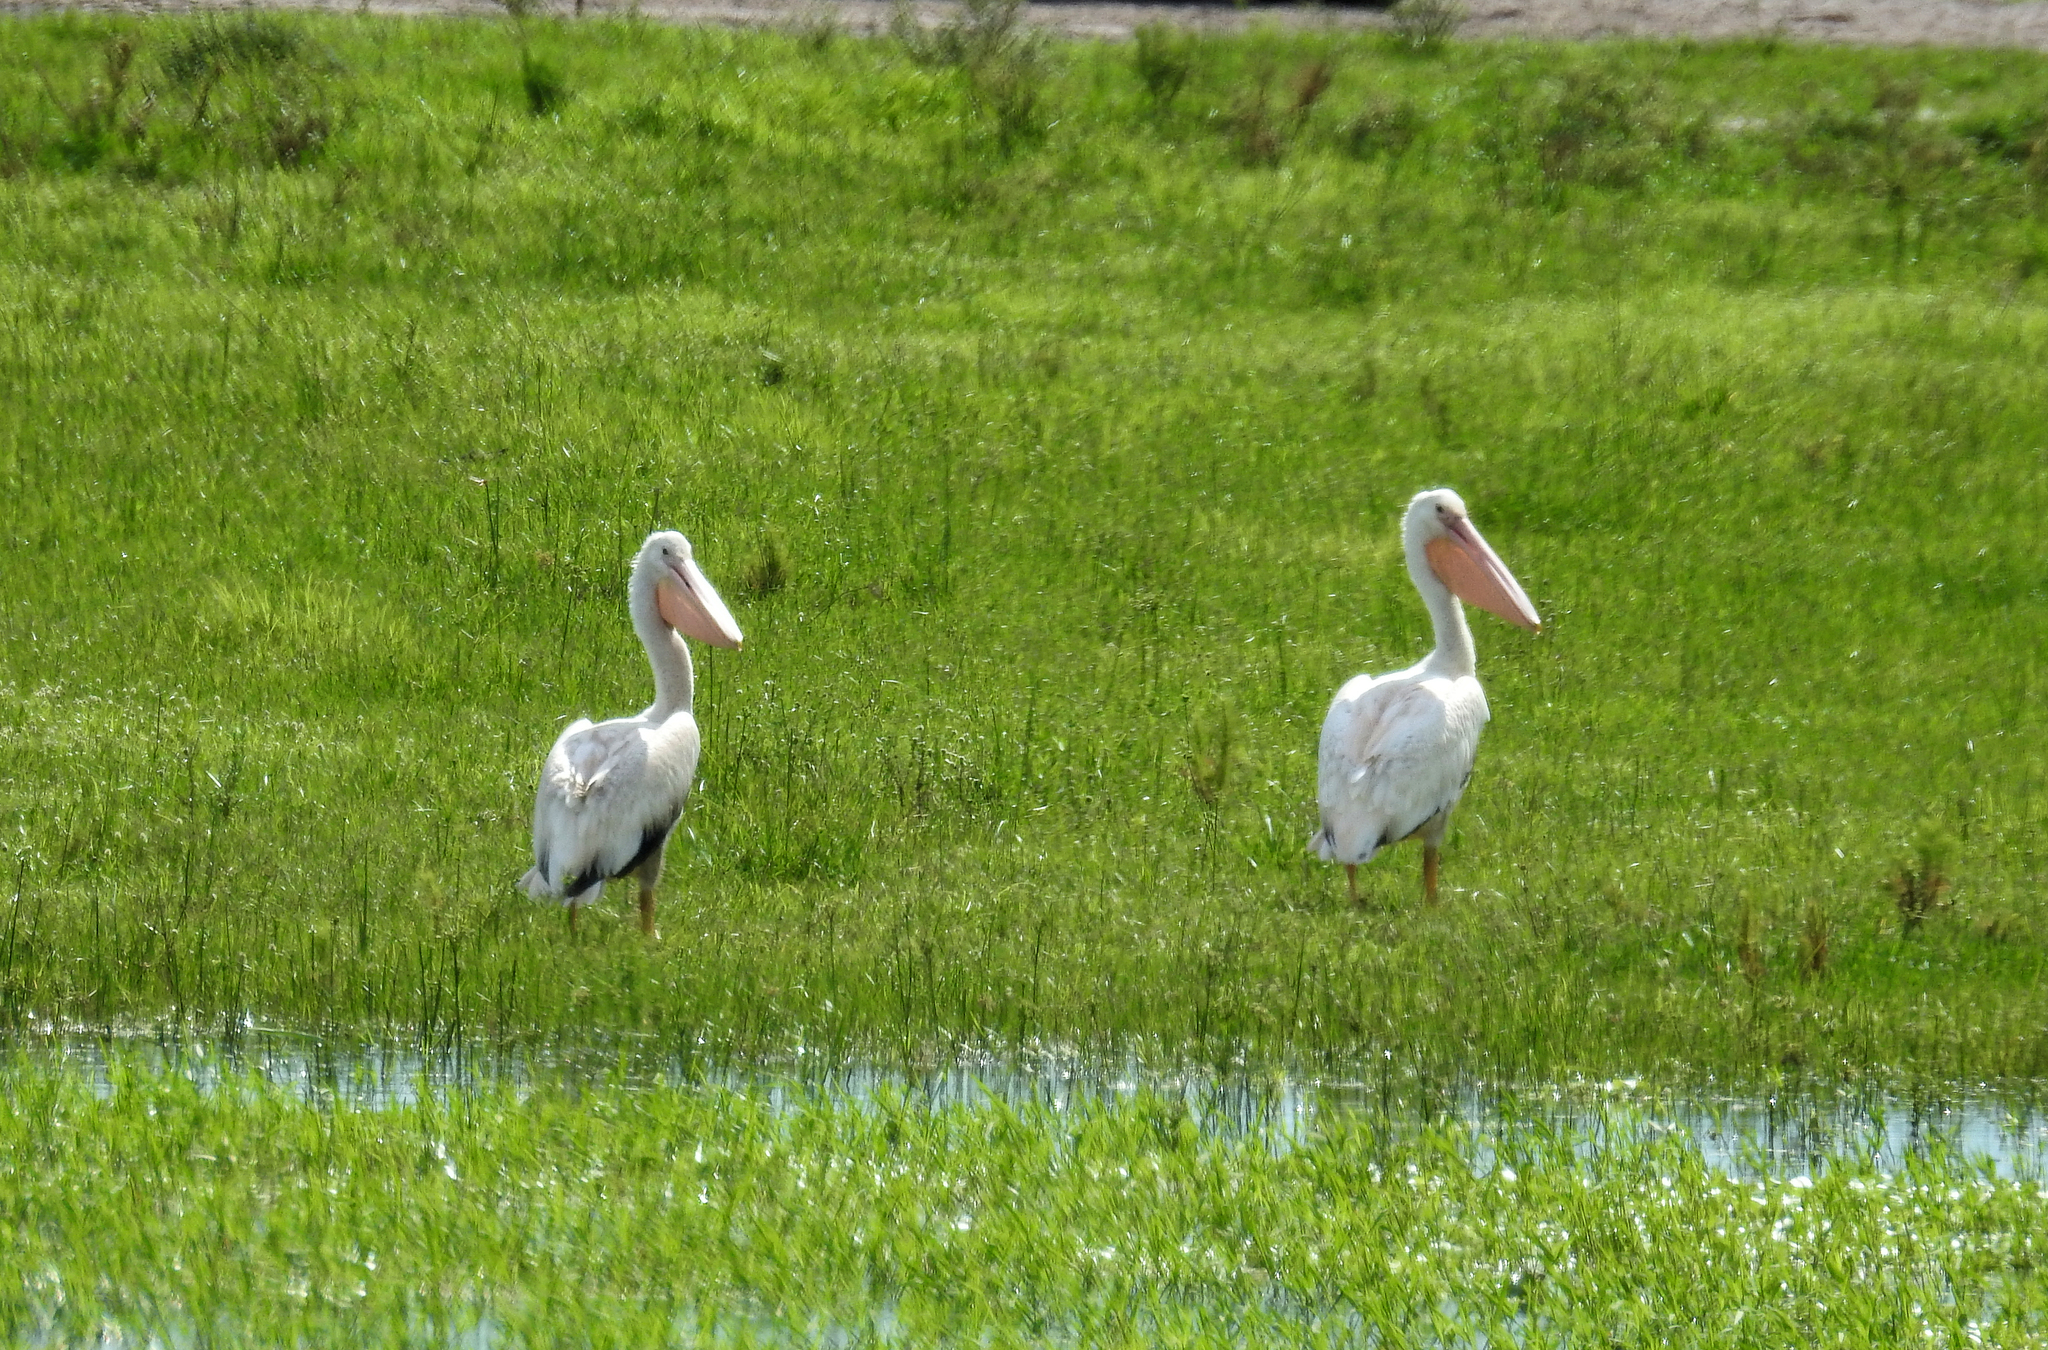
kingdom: Animalia
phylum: Chordata
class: Aves
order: Pelecaniformes
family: Pelecanidae
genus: Pelecanus
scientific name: Pelecanus erythrorhynchos
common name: American white pelican
